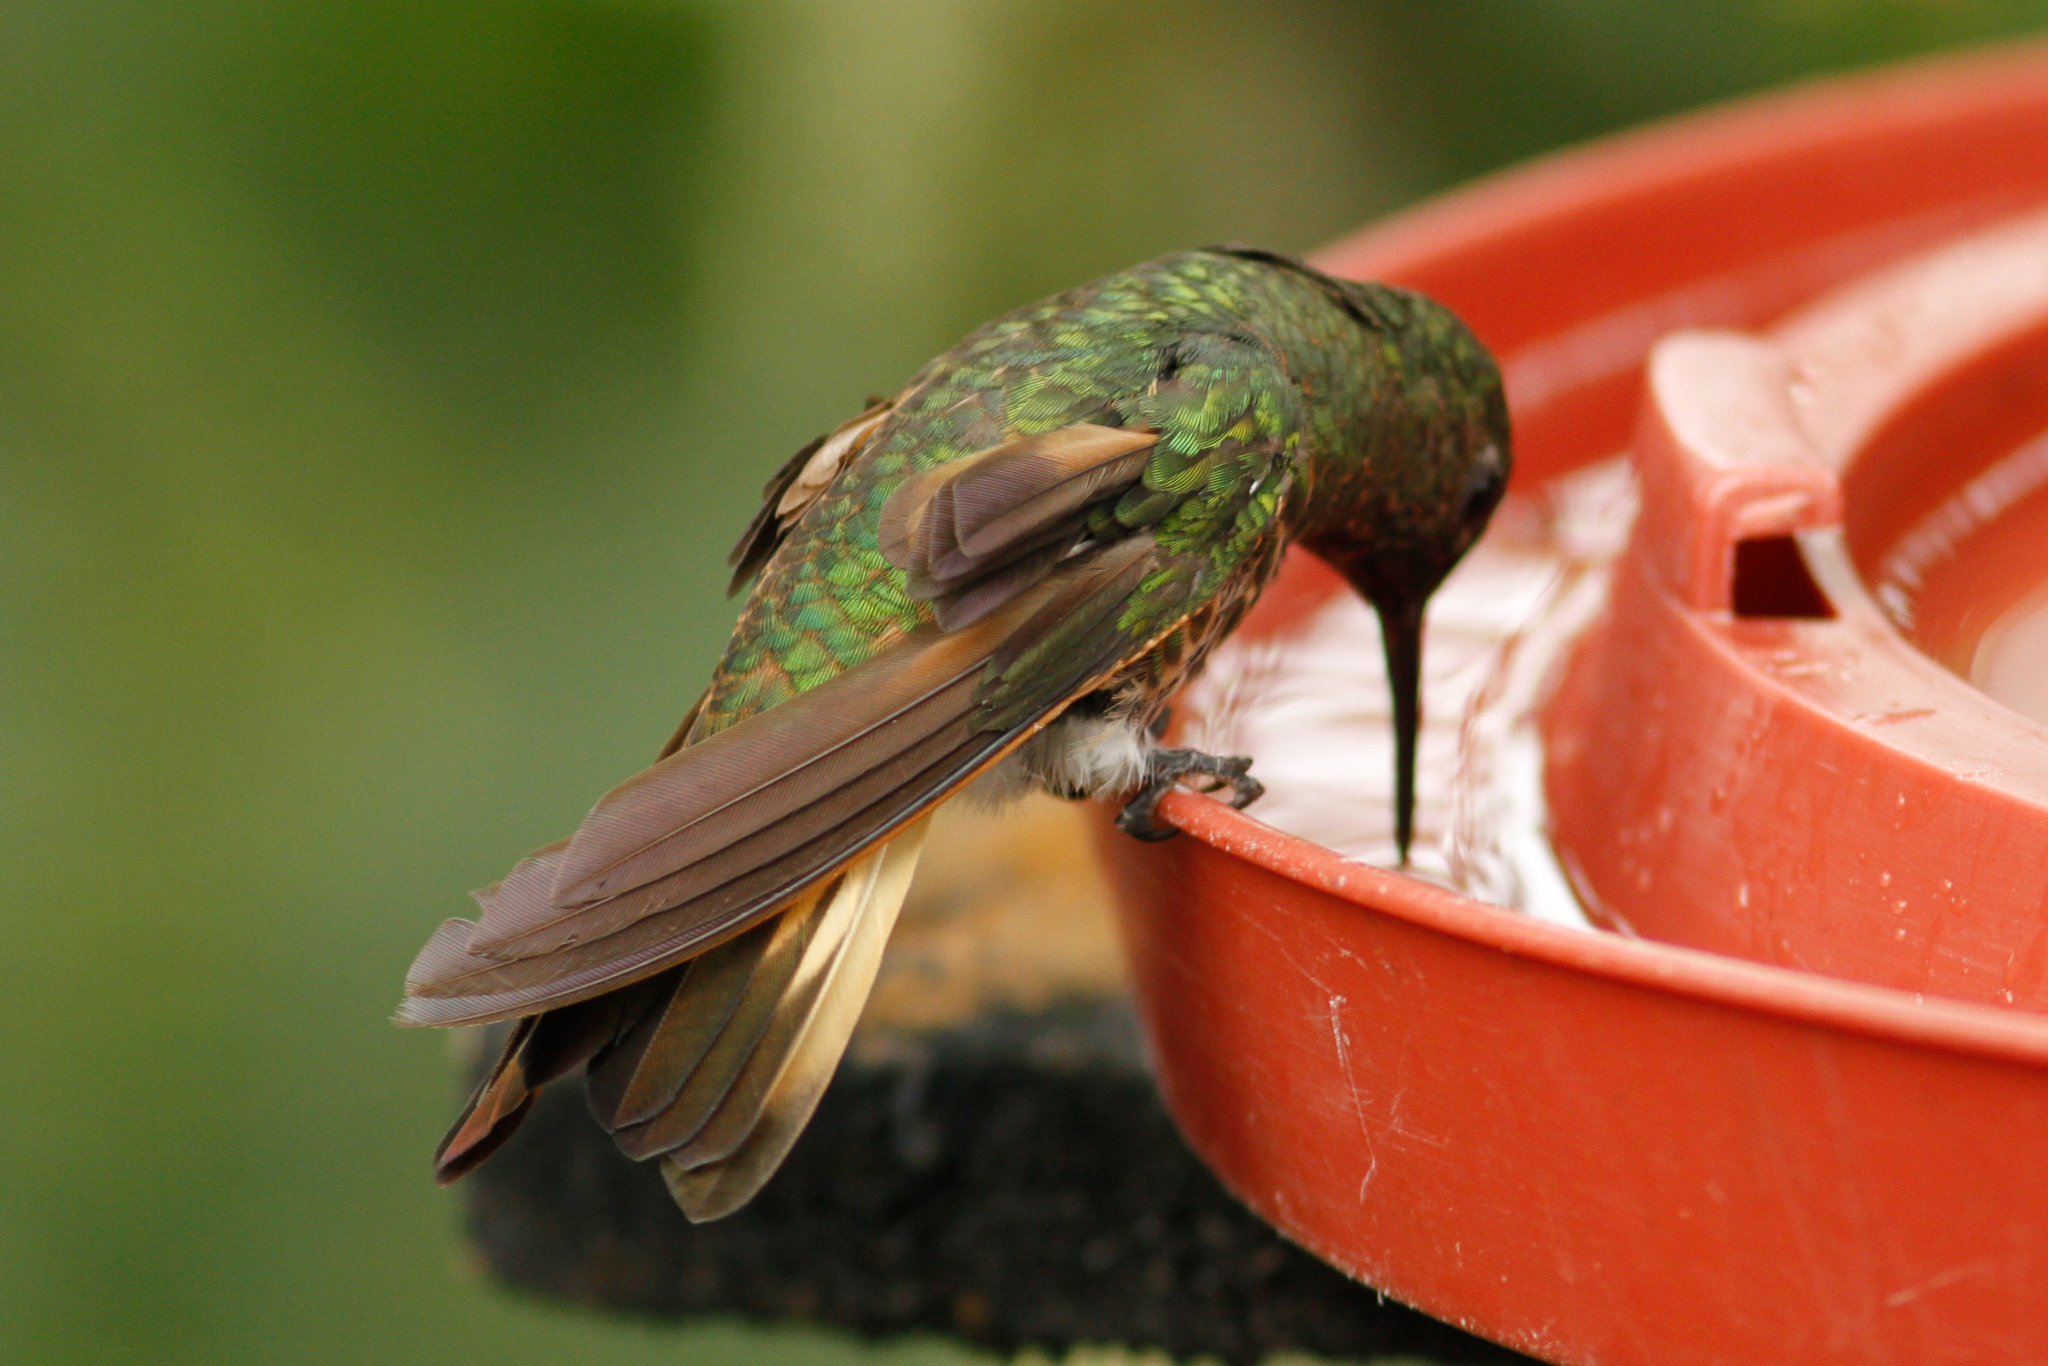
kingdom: Animalia
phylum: Chordata
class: Aves
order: Apodiformes
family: Trochilidae
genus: Boissonneaua
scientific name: Boissonneaua flavescens
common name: Buff-tailed coronet
